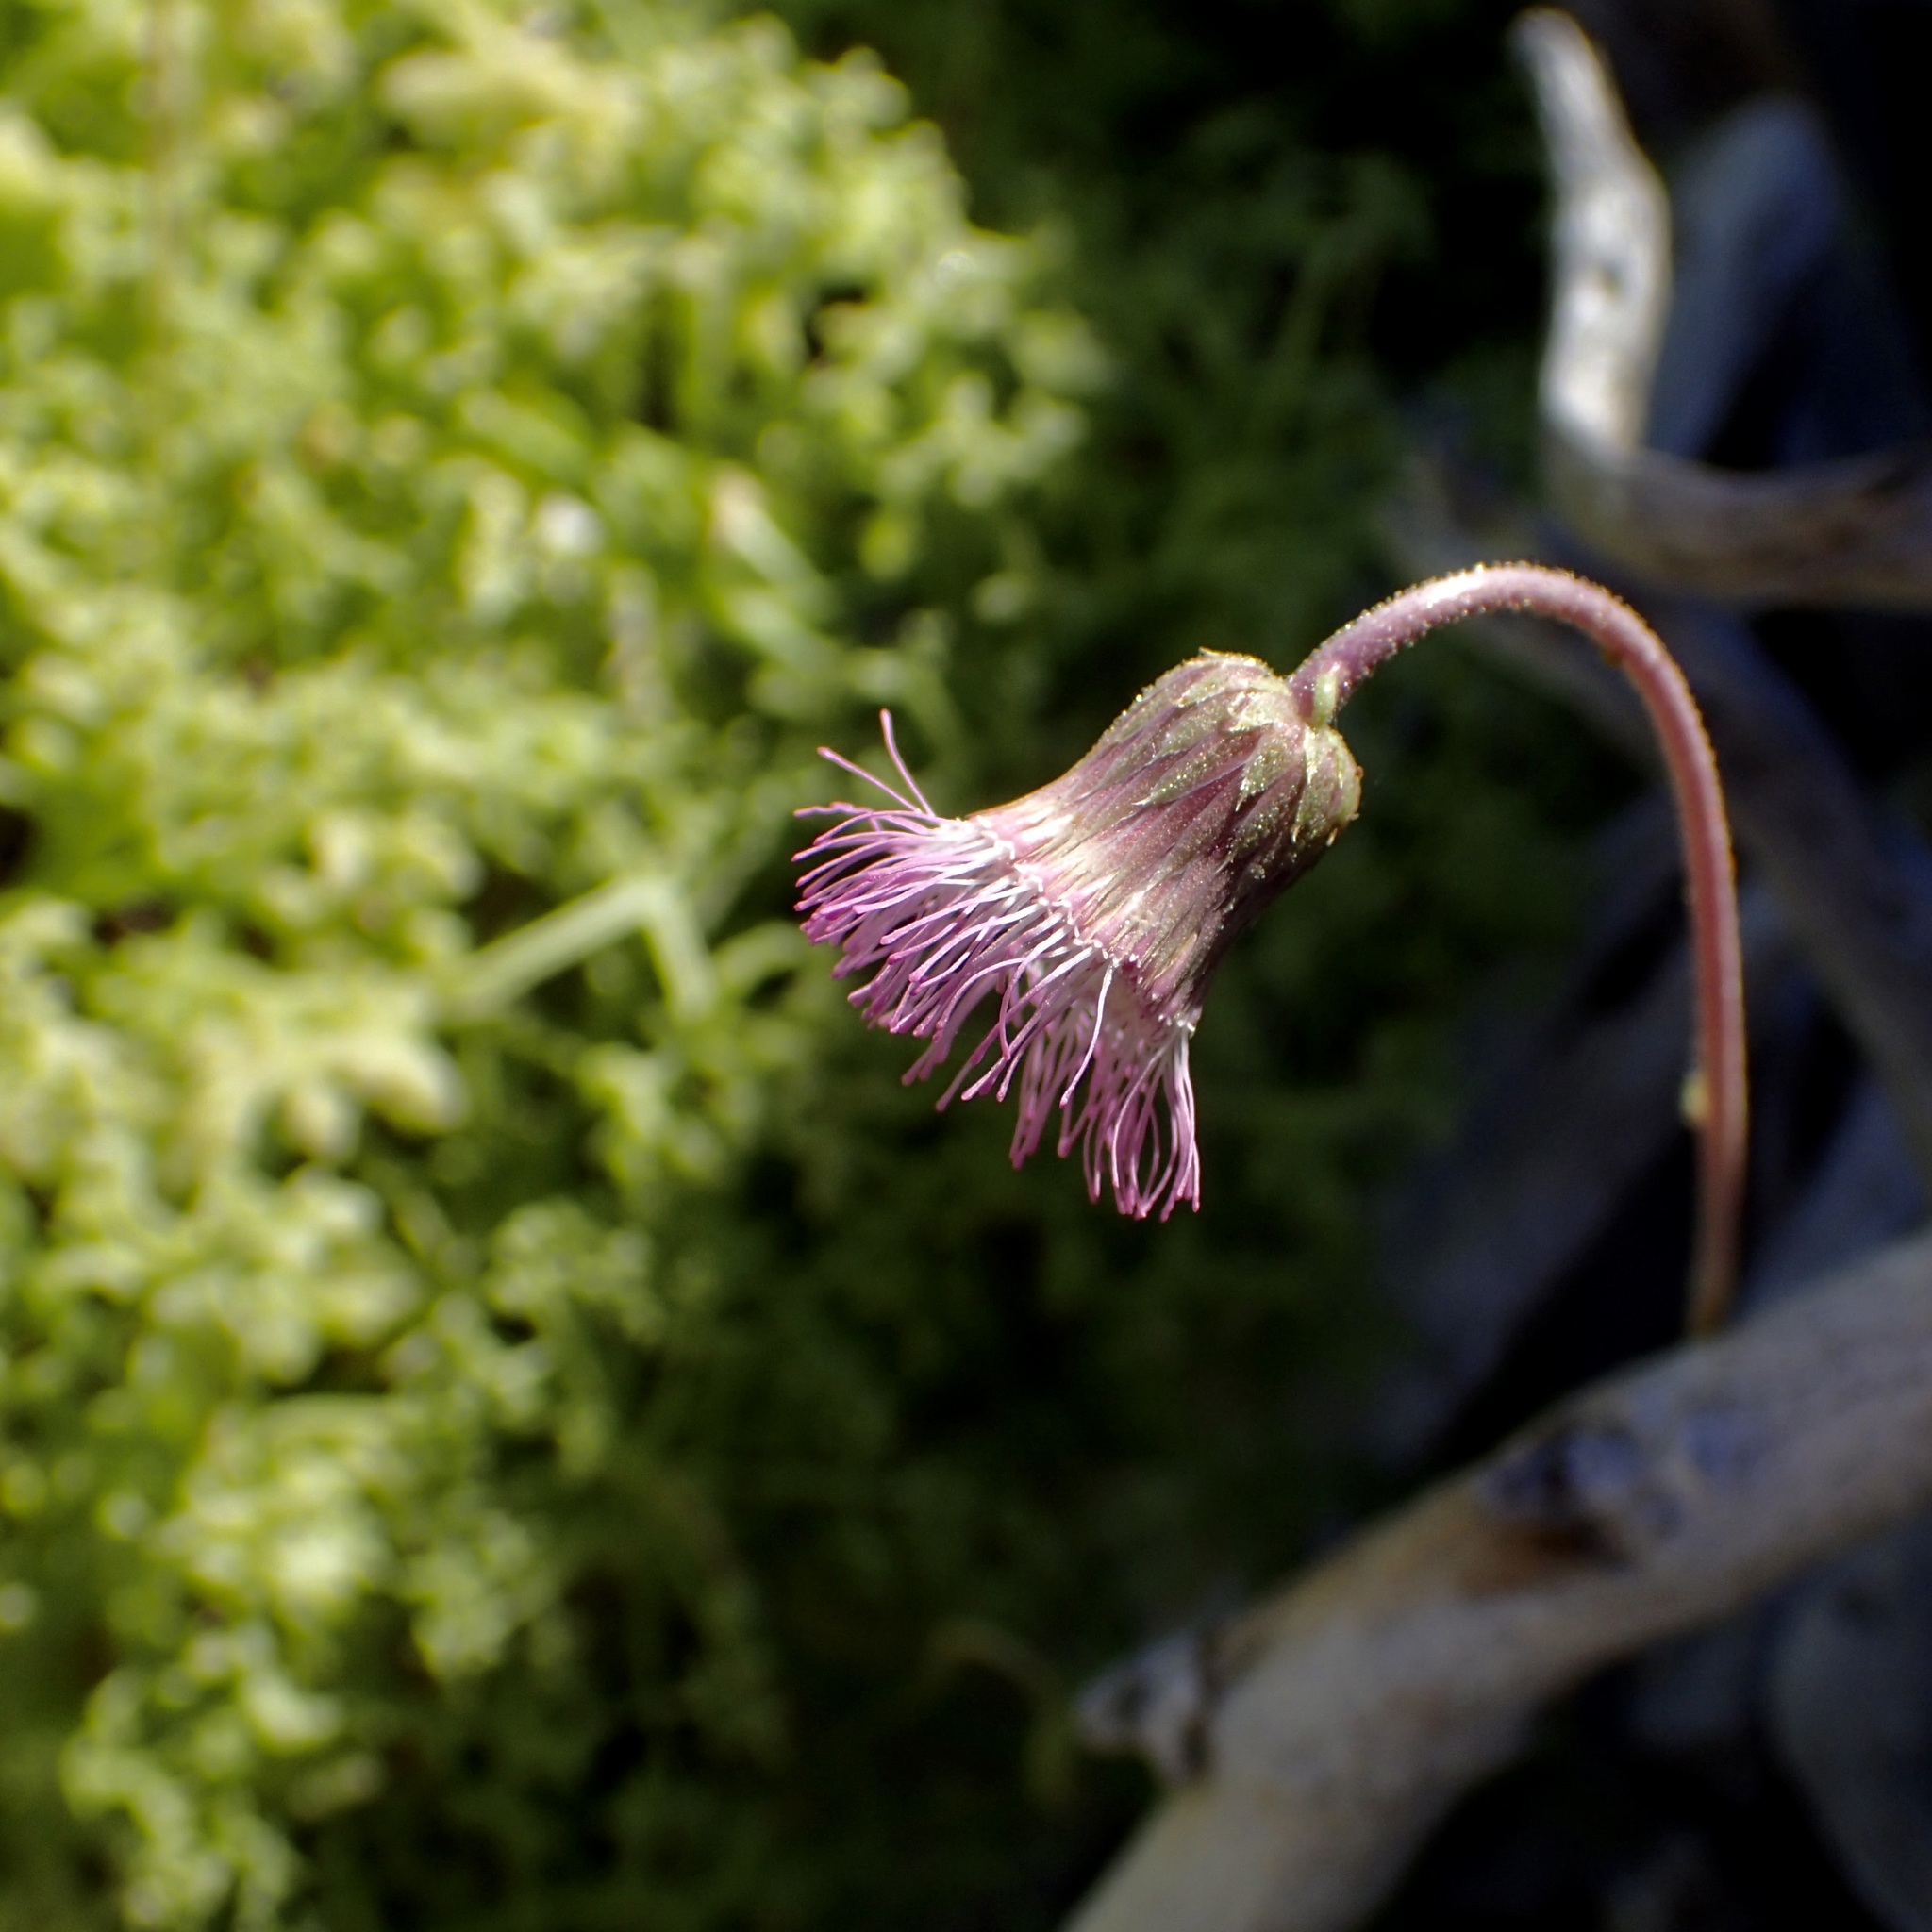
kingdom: Plantae
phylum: Tracheophyta
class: Magnoliopsida
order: Asterales
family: Asteraceae
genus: Hofmeisteria
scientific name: Hofmeisteria fasciculata
